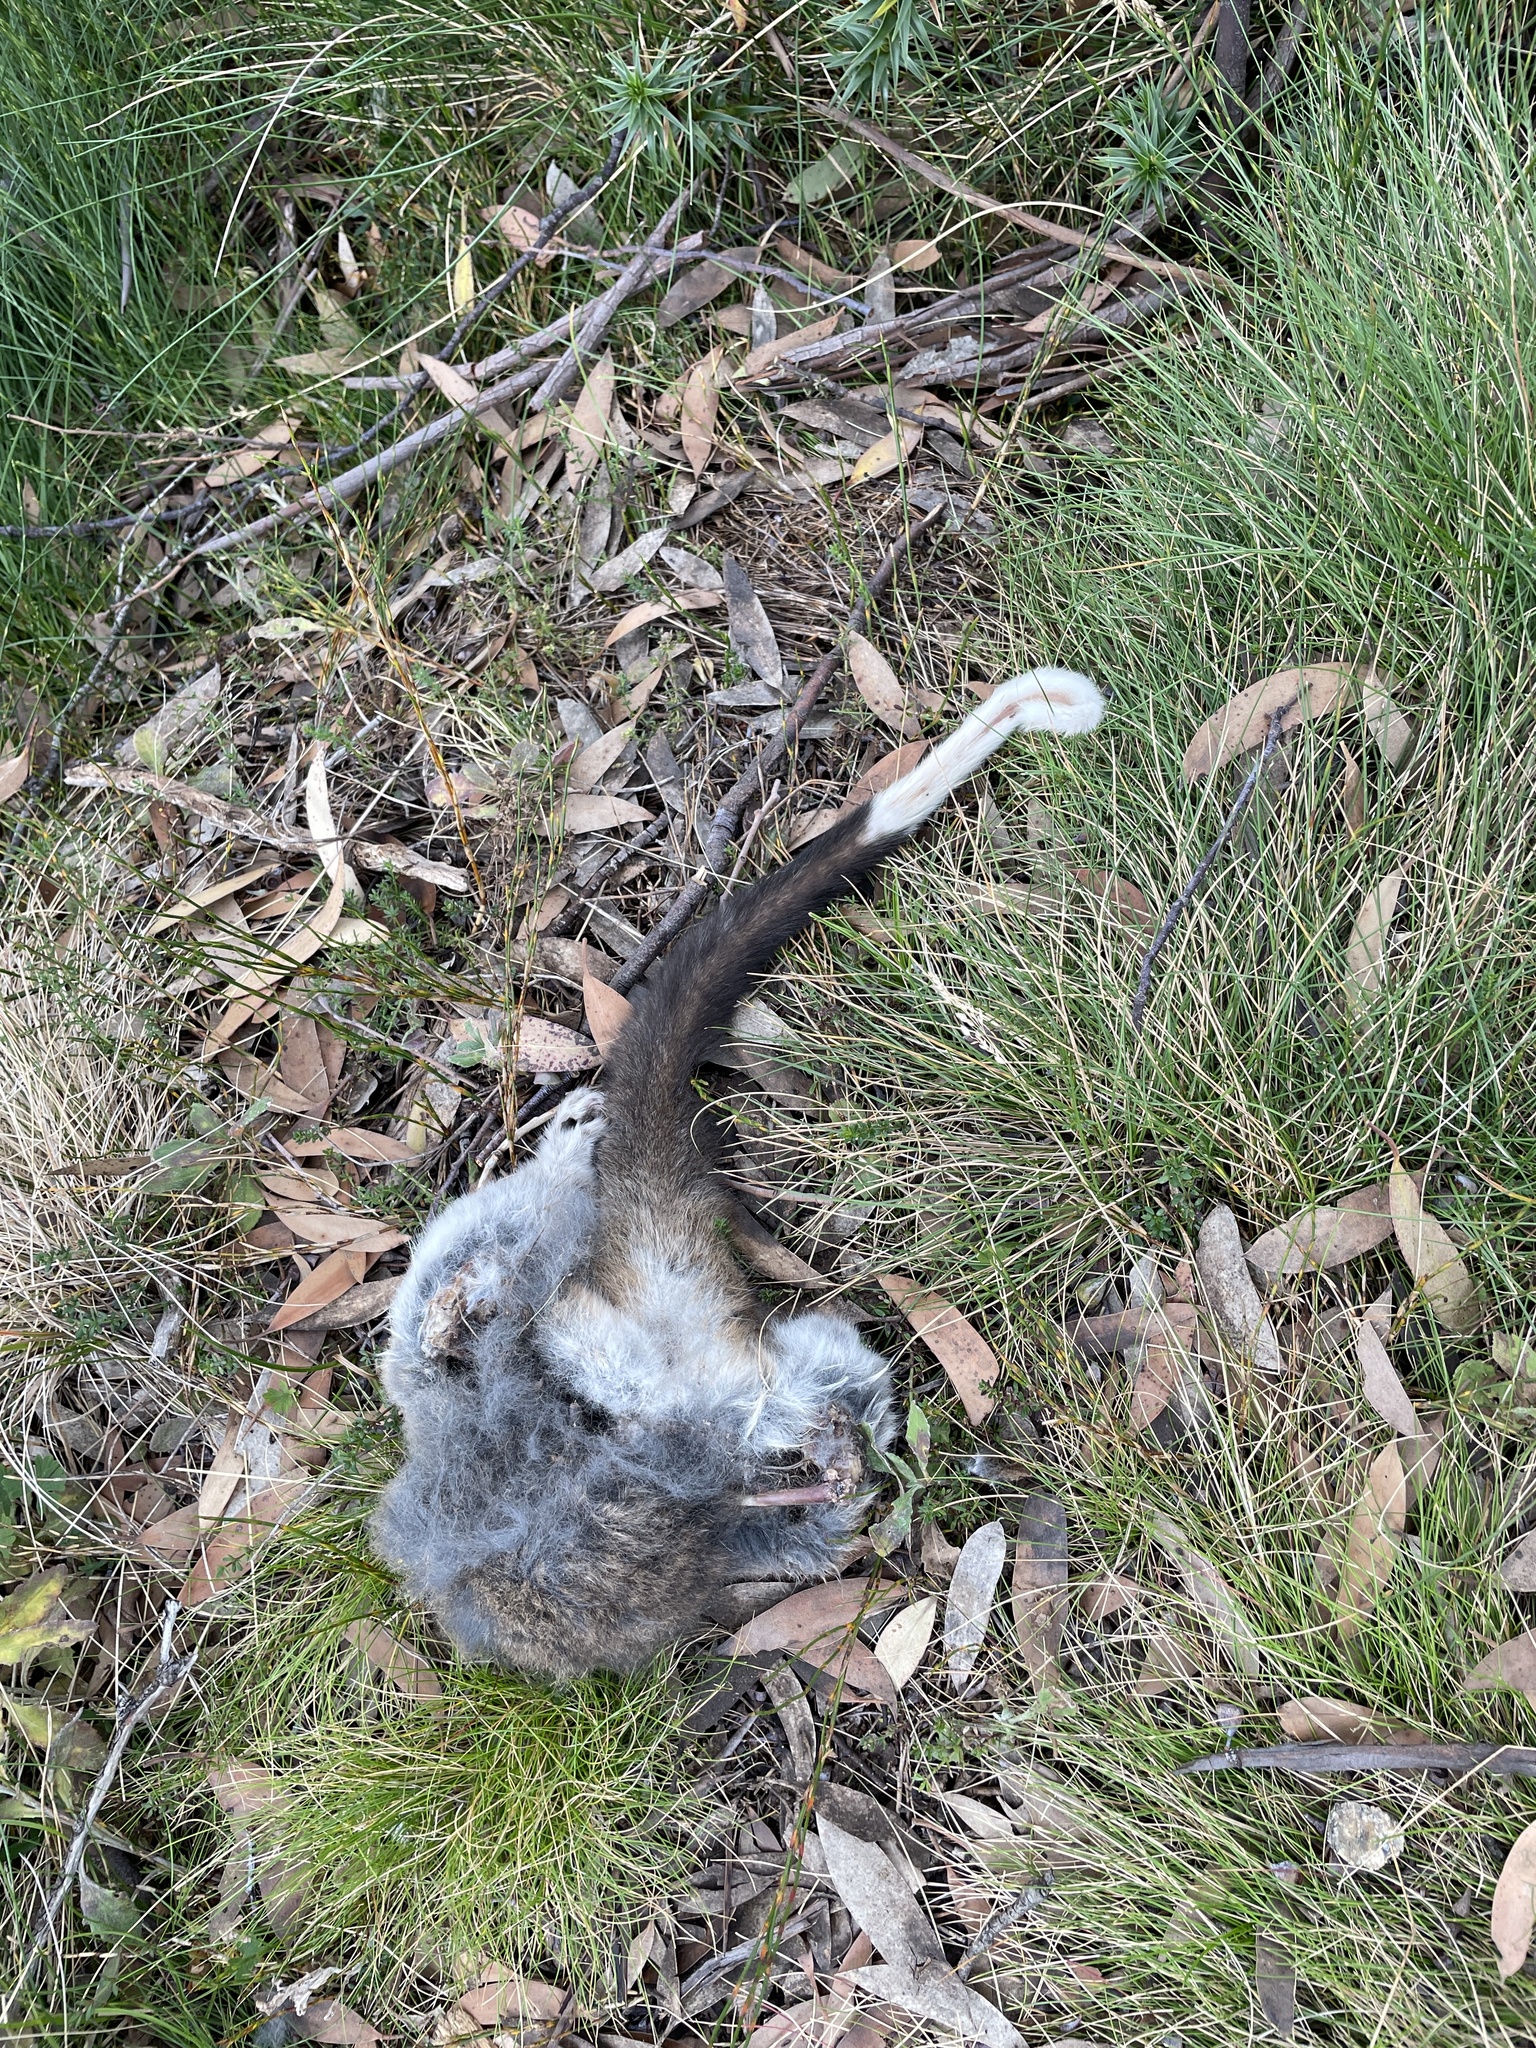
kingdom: Animalia
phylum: Chordata
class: Mammalia
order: Diprotodontia
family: Pseudocheiridae
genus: Pseudocheirus
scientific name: Pseudocheirus peregrinus
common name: Common ringtail possum
